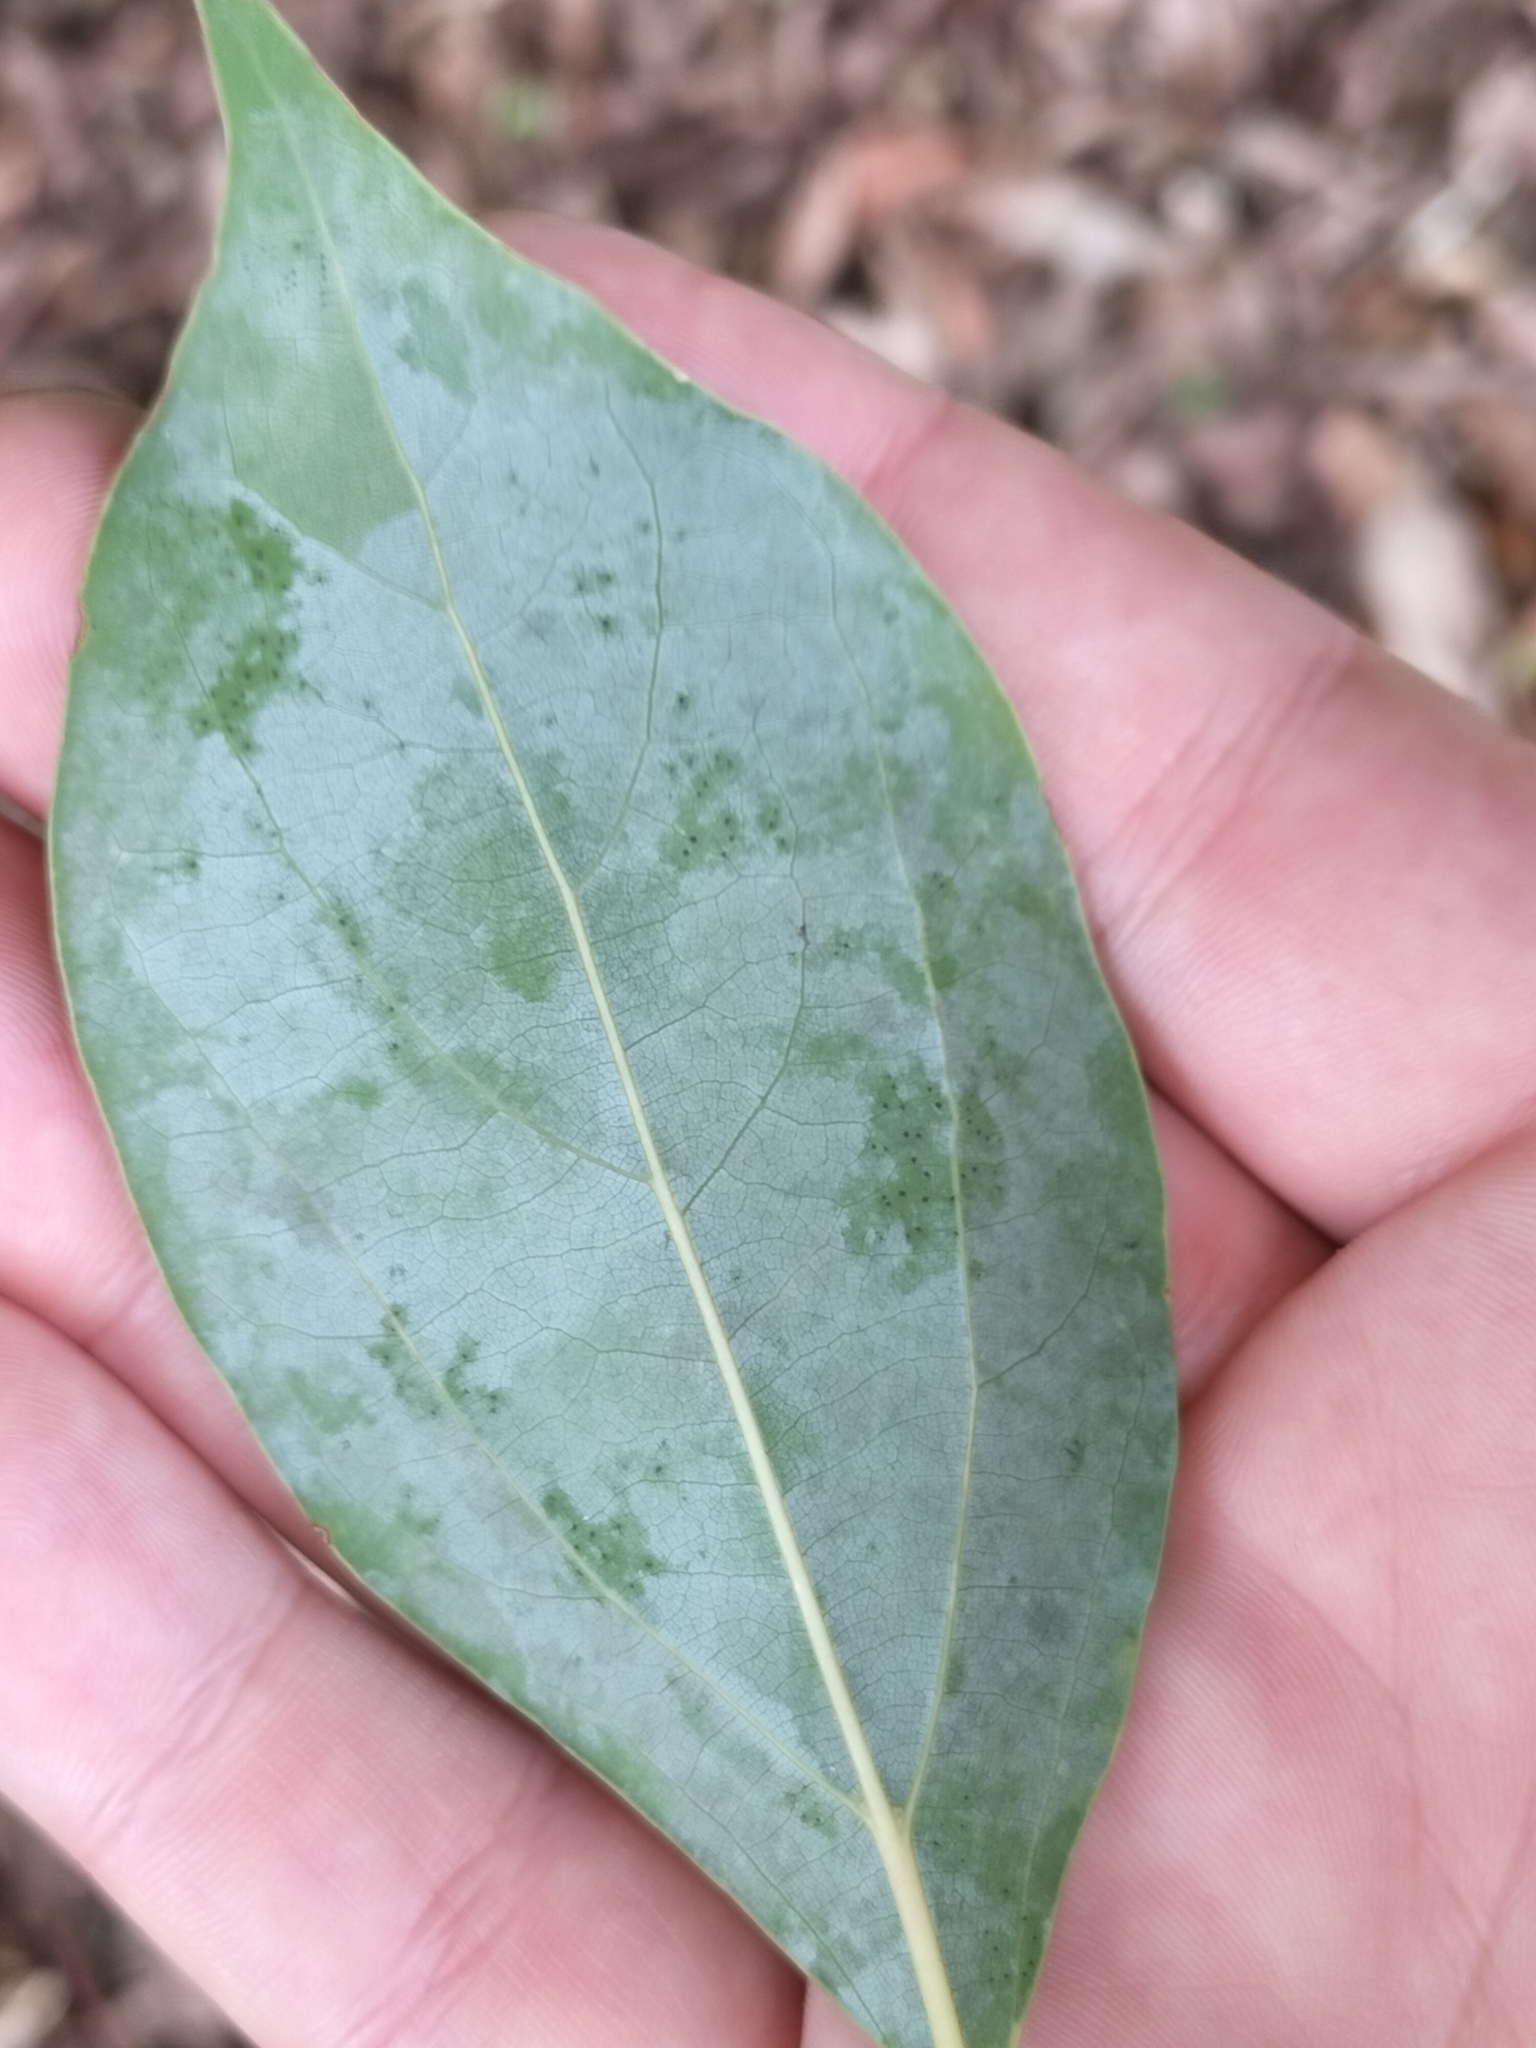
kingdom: Plantae
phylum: Tracheophyta
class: Magnoliopsida
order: Laurales
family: Lauraceae
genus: Cinnamomum
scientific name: Cinnamomum camphora
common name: Camphortree
